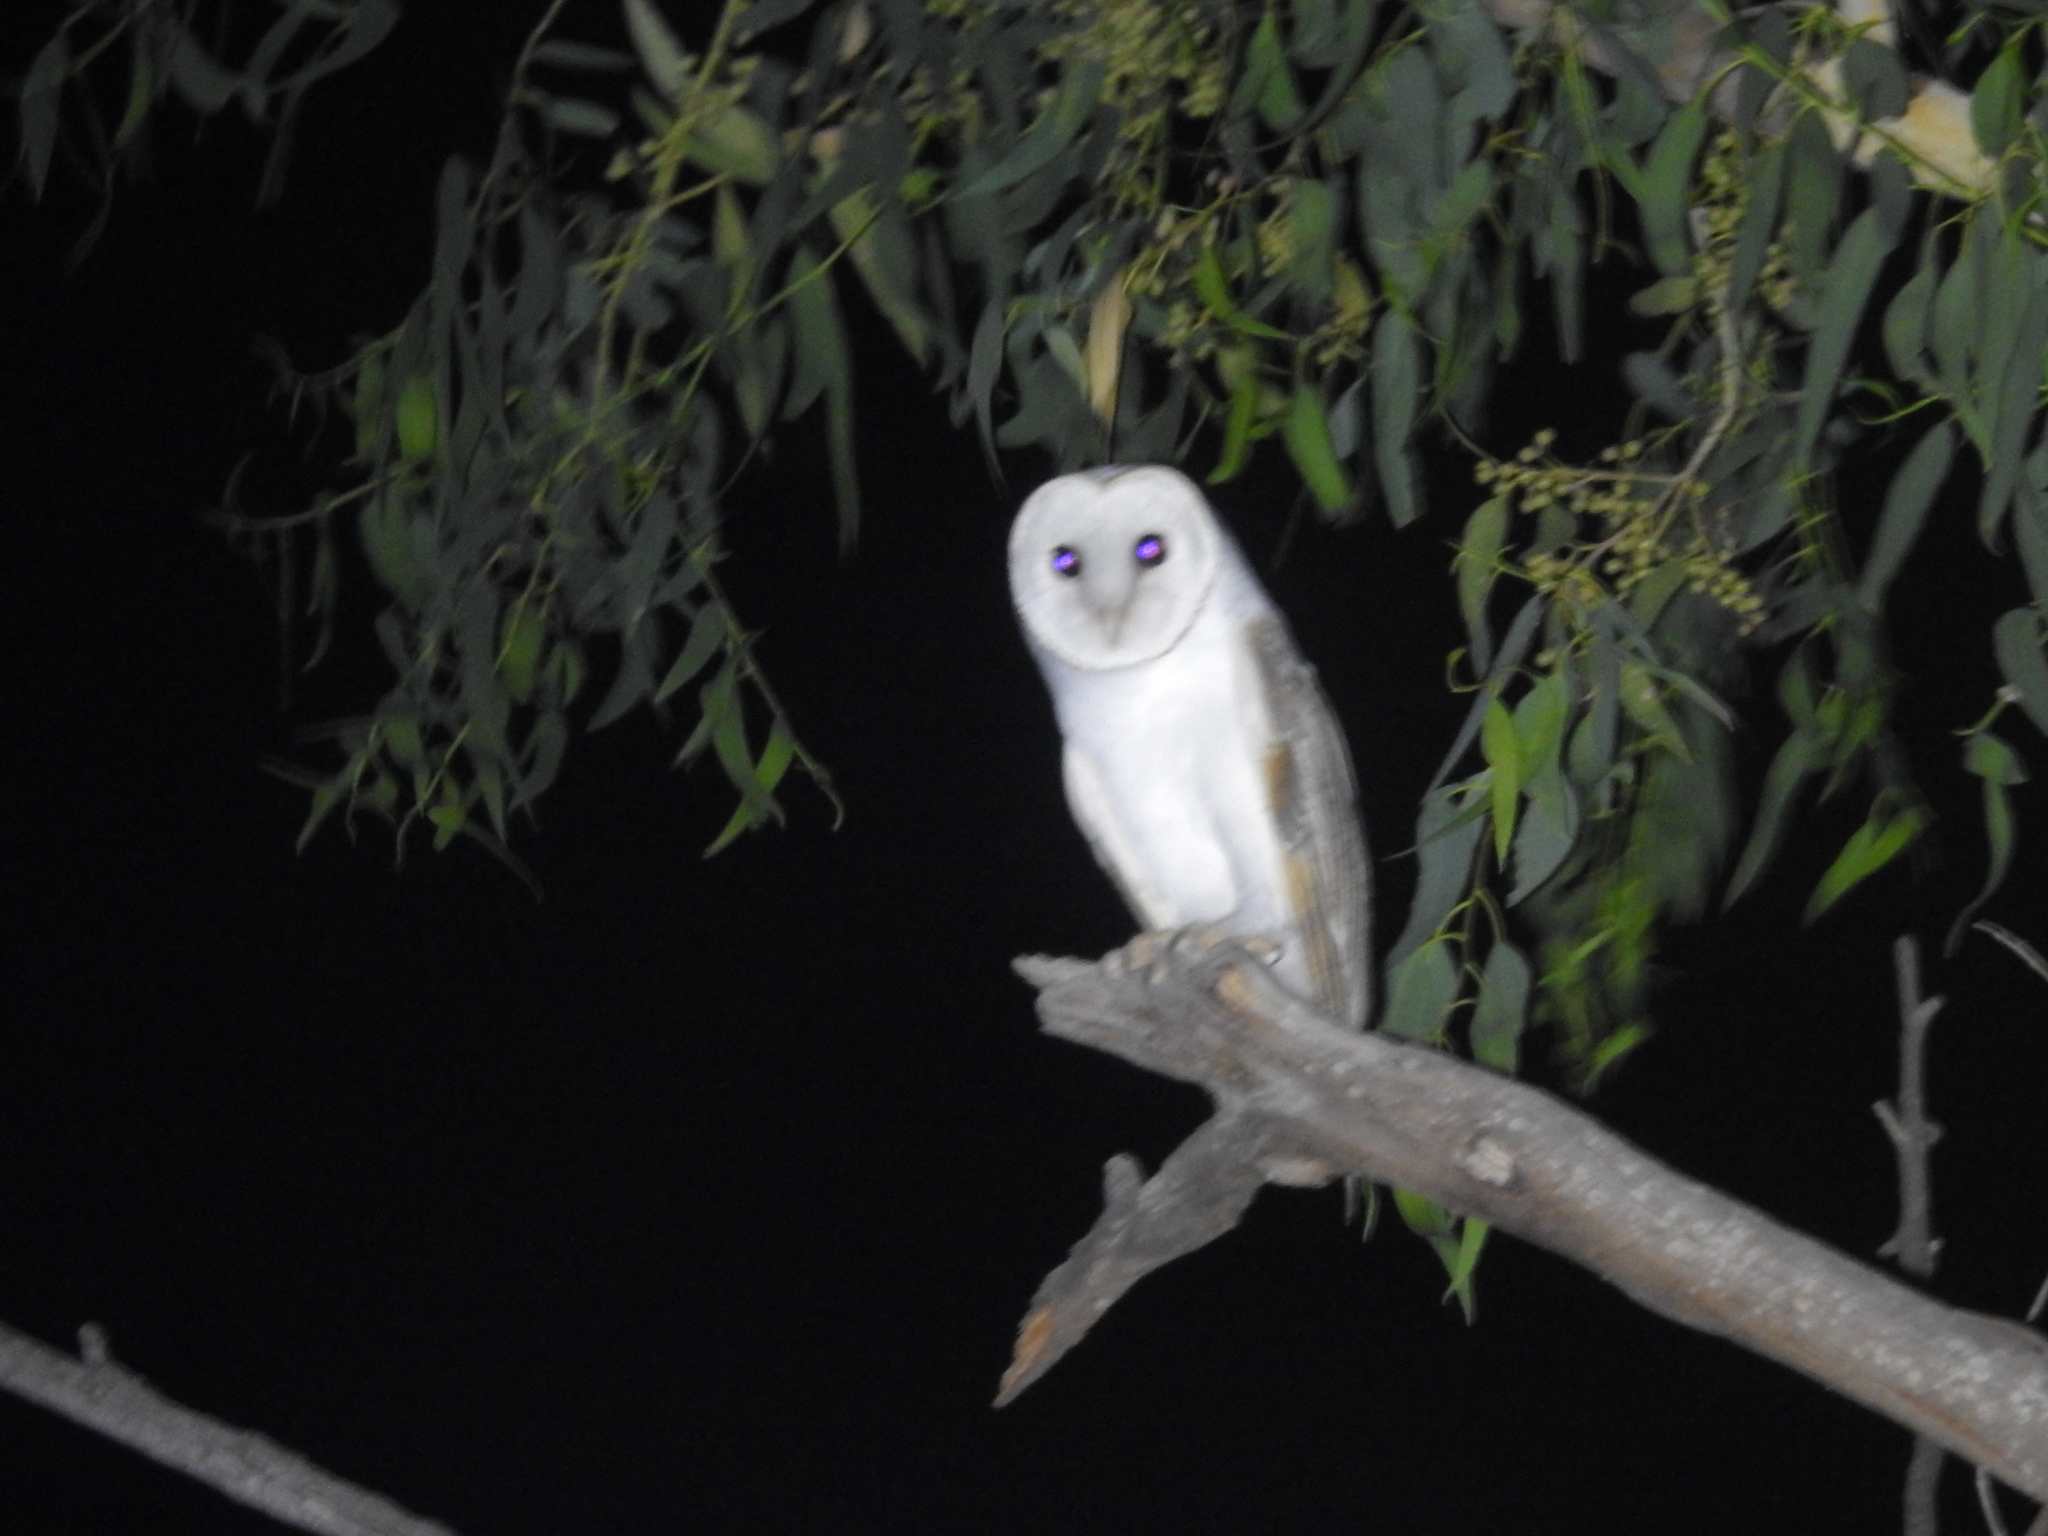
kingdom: Animalia
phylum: Chordata
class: Aves
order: Strigiformes
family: Tytonidae
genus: Tyto
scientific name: Tyto alba
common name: Barn owl
